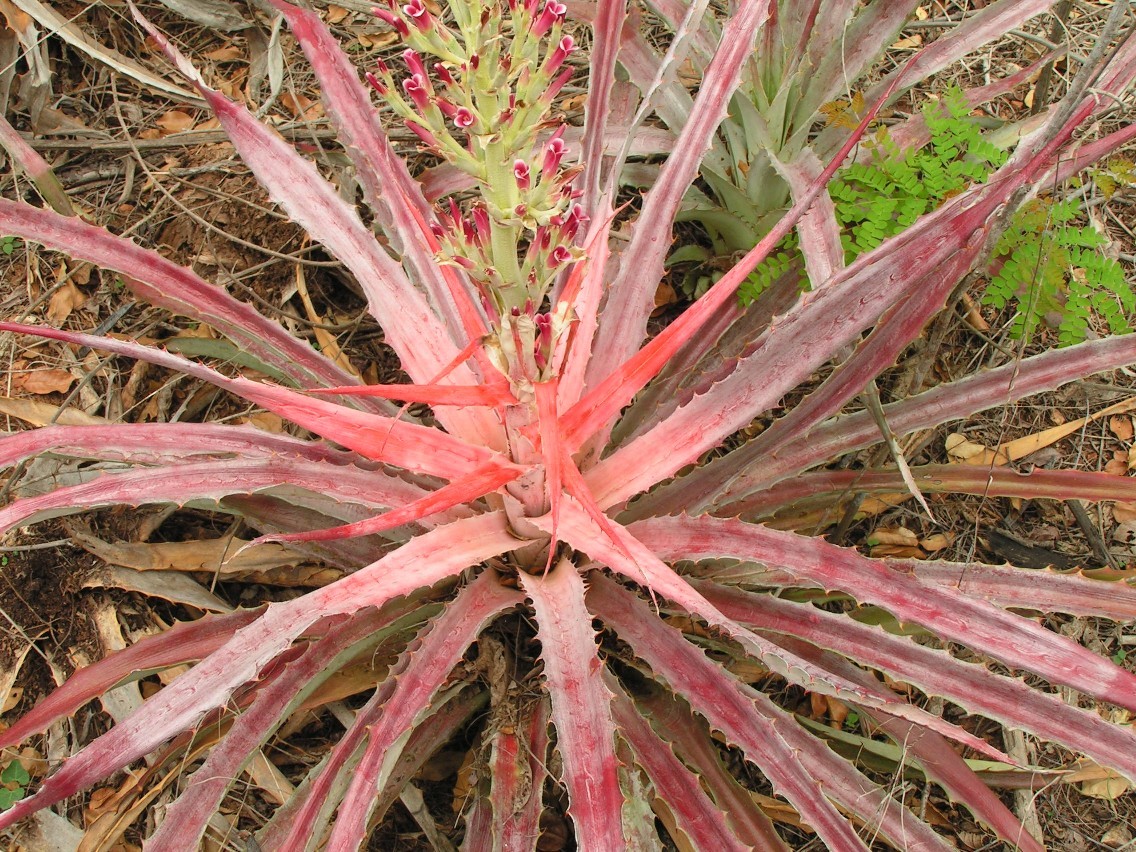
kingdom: Plantae
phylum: Tracheophyta
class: Liliopsida
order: Poales
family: Bromeliaceae
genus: Bromelia
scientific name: Bromelia pinguin
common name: Pinguin
